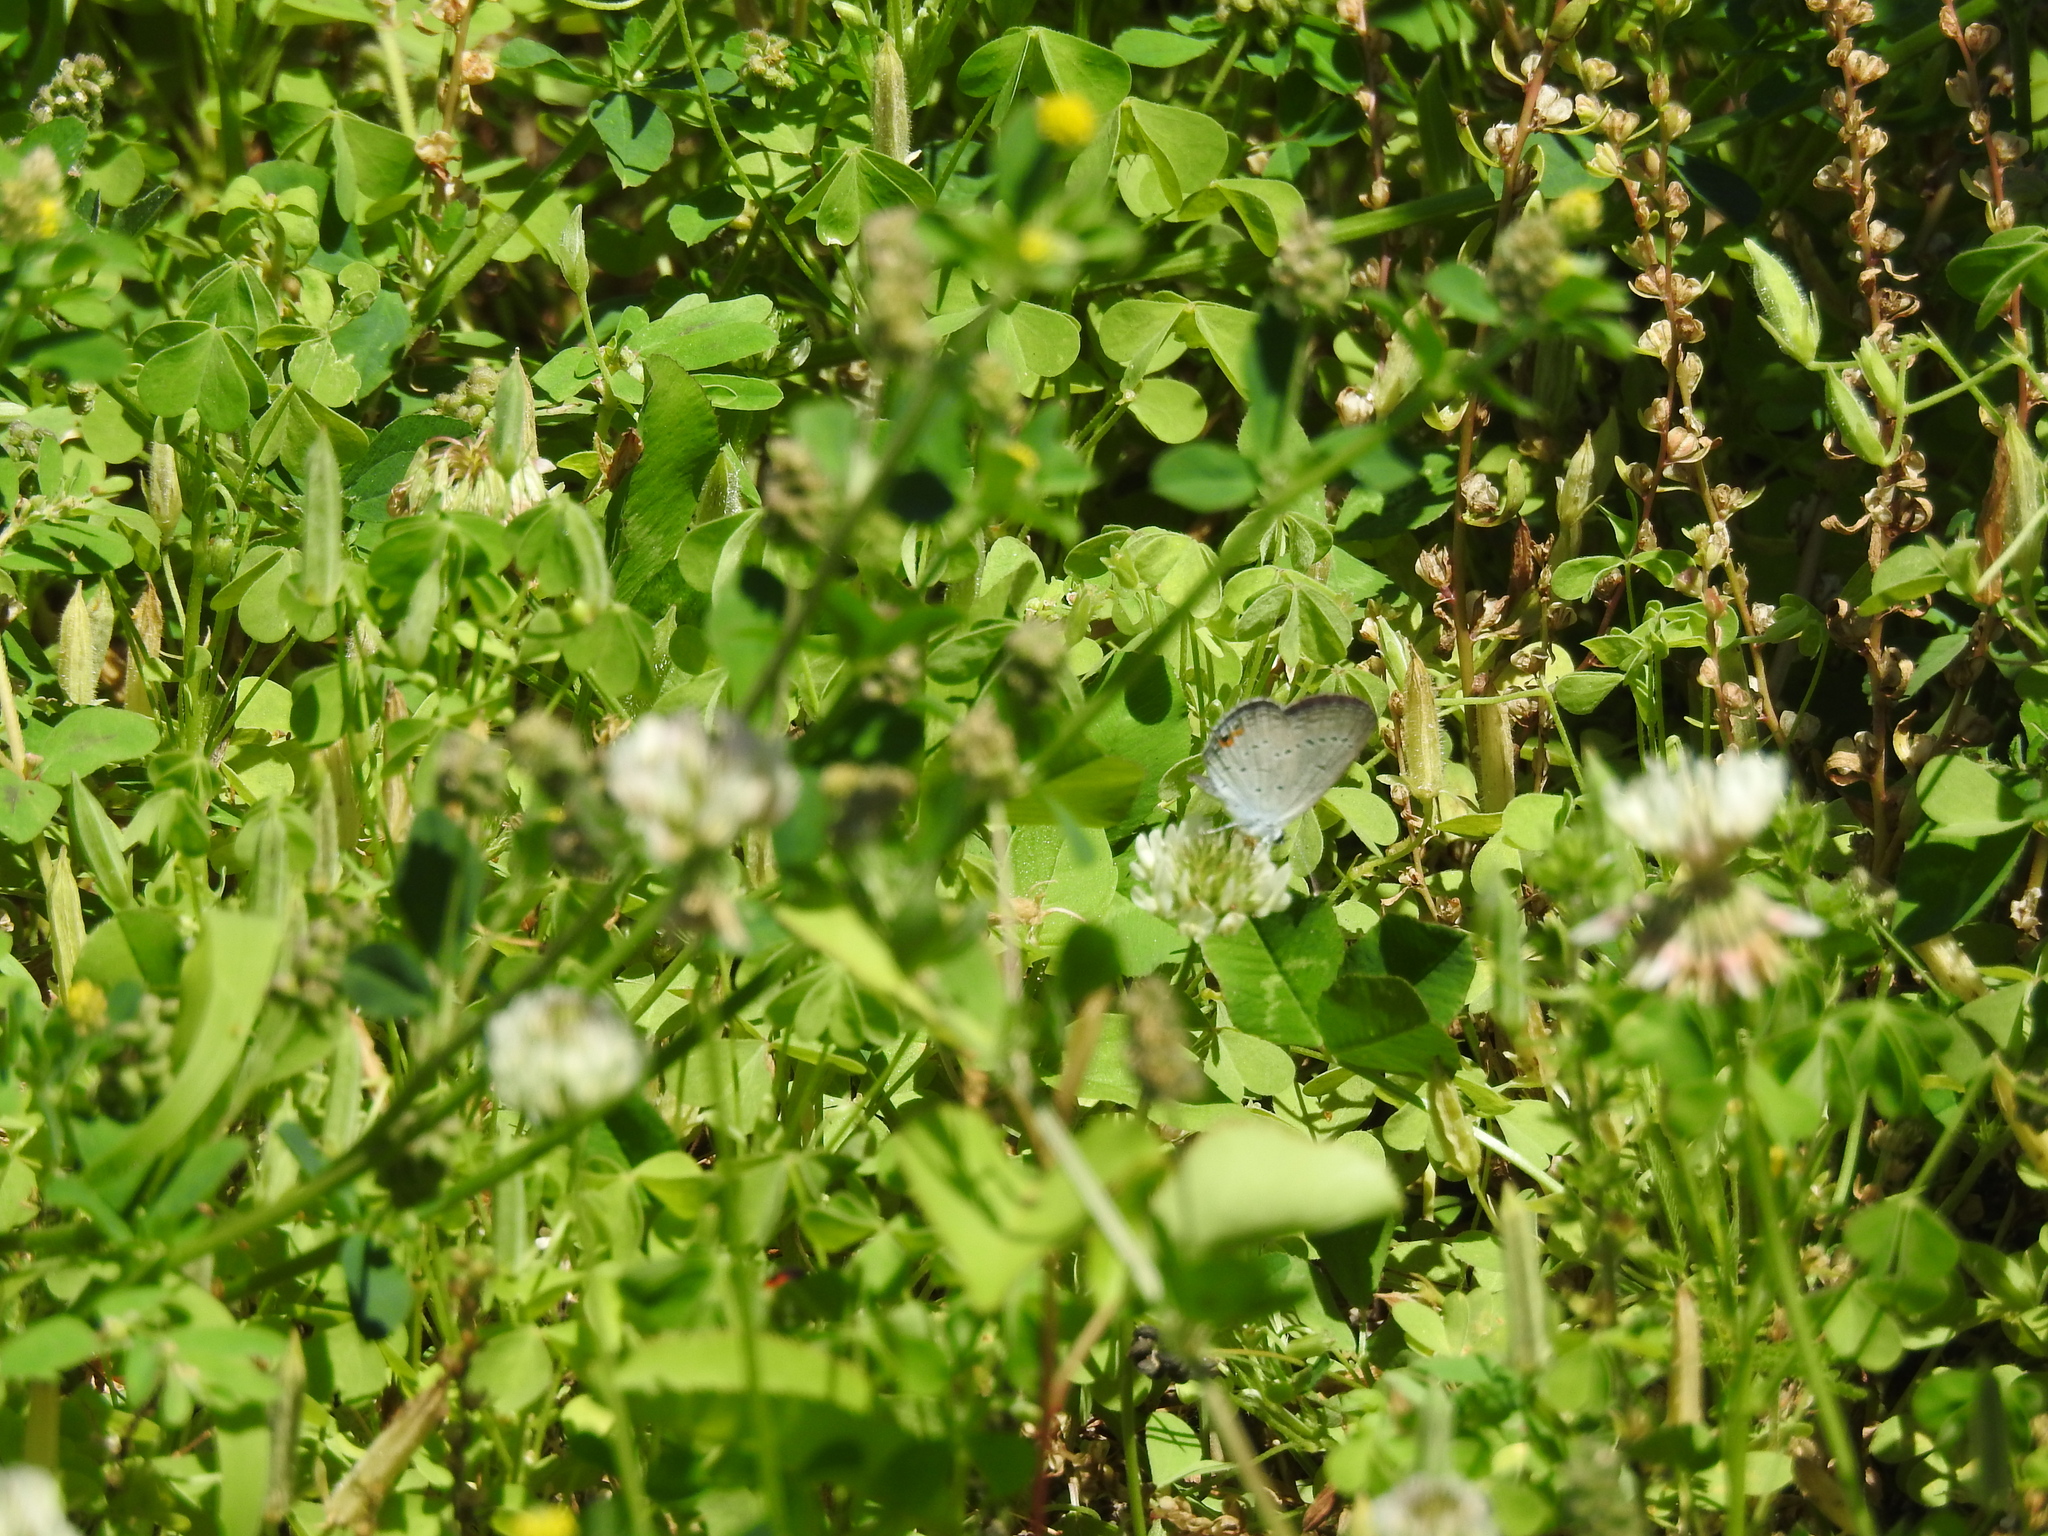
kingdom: Animalia
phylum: Arthropoda
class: Insecta
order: Lepidoptera
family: Lycaenidae
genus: Elkalyce
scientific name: Elkalyce comyntas
